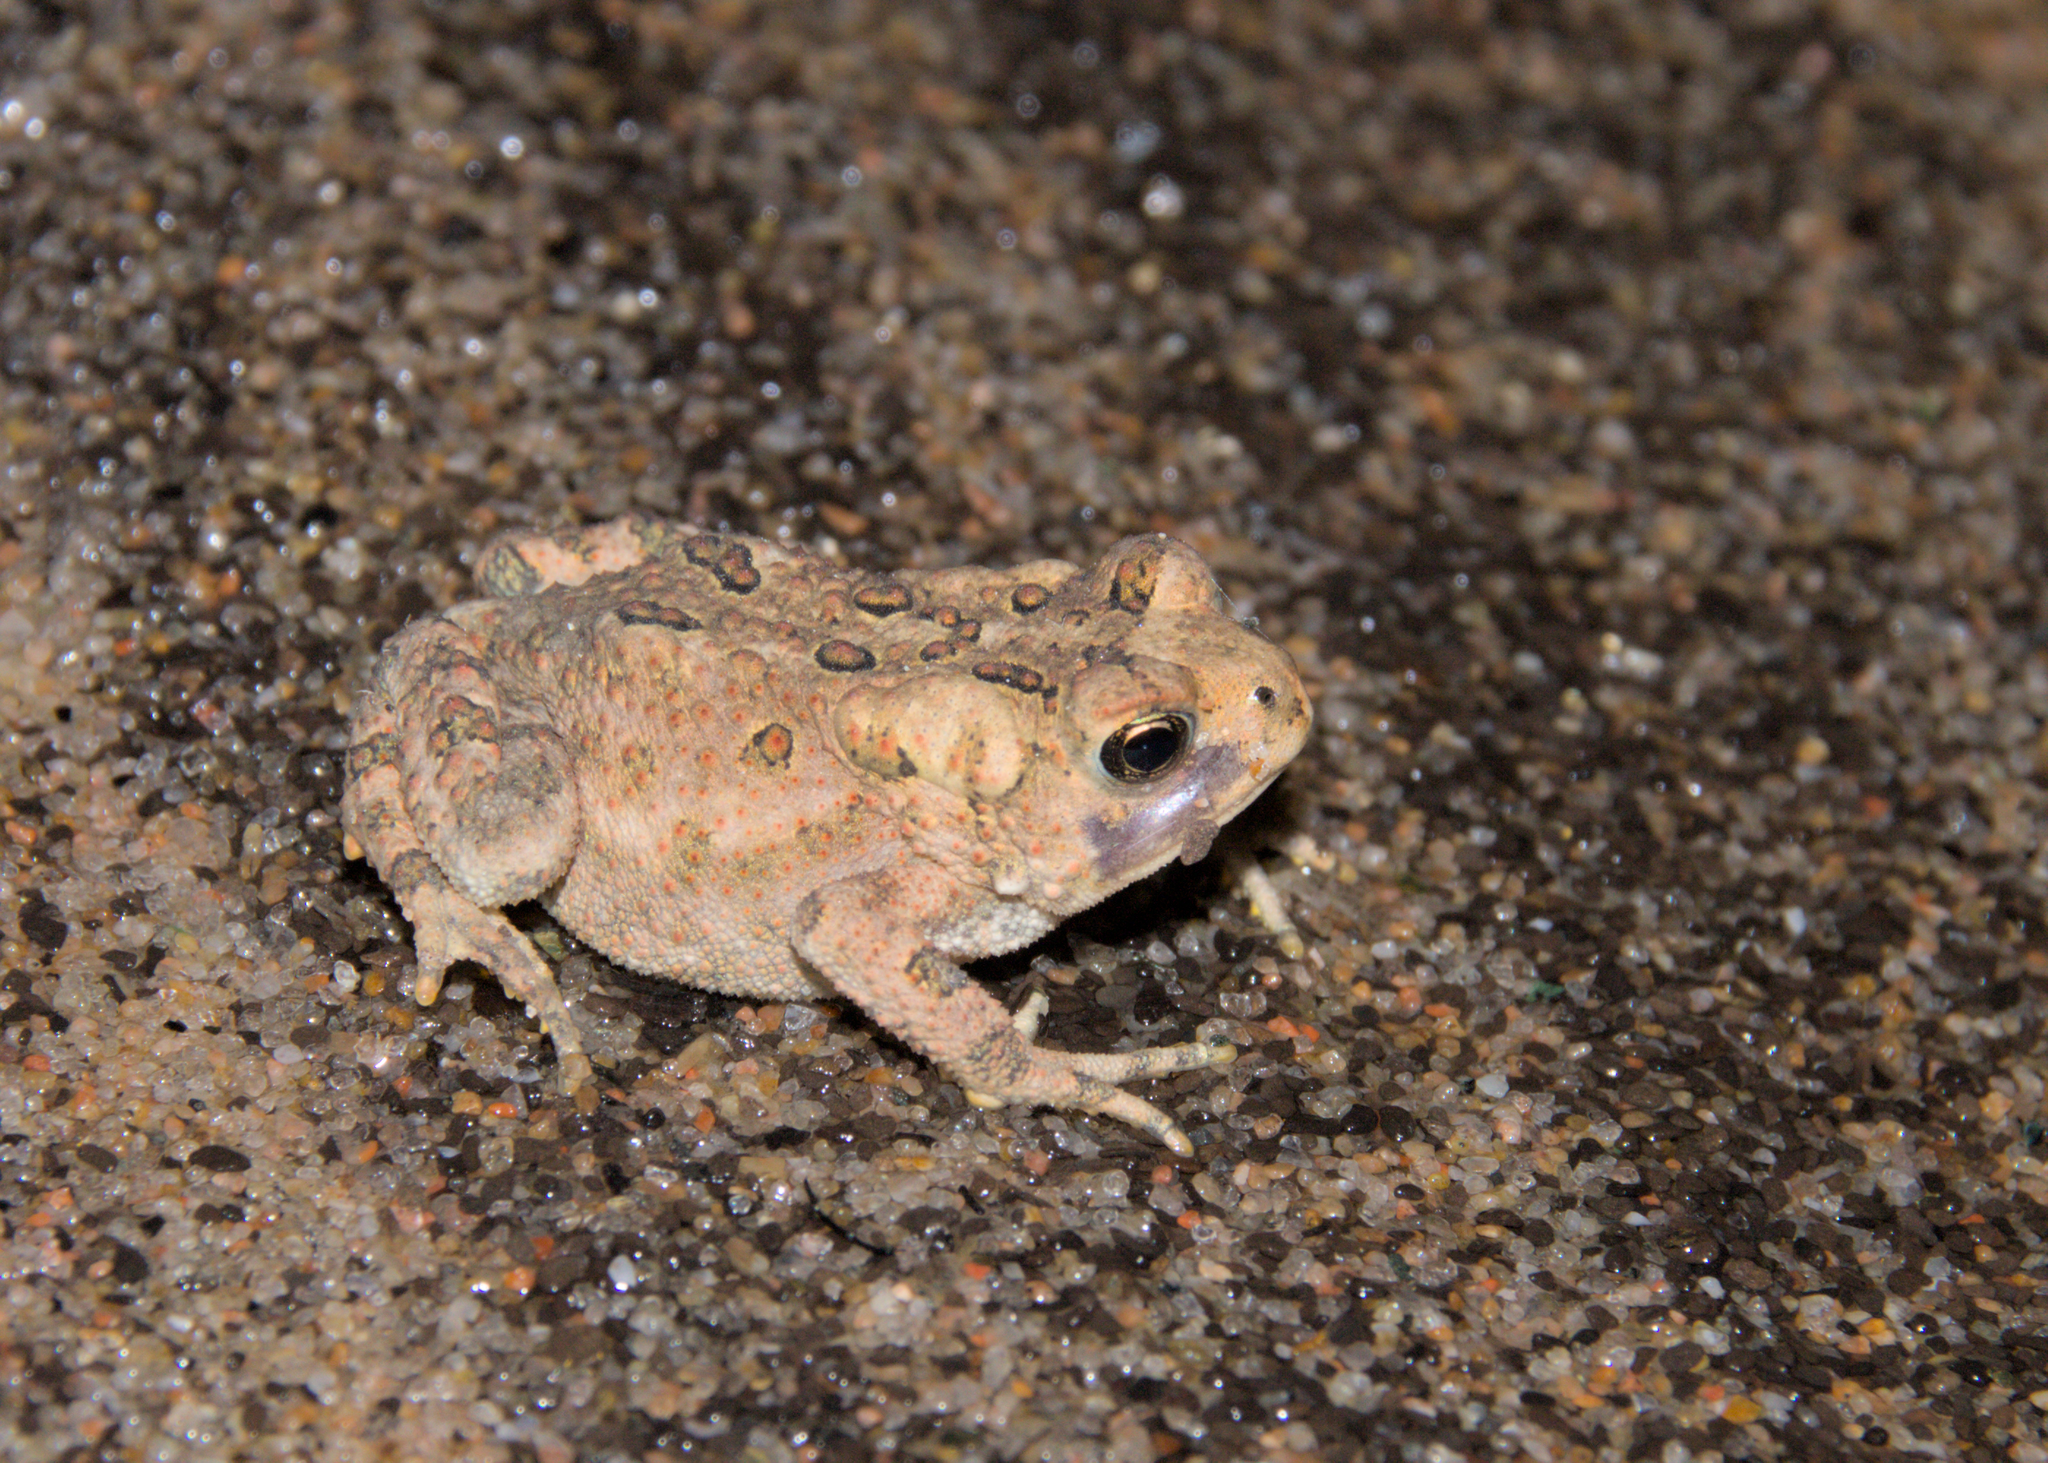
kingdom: Animalia
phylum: Chordata
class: Amphibia
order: Anura
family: Bufonidae
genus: Anaxyrus
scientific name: Anaxyrus americanus
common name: American toad
